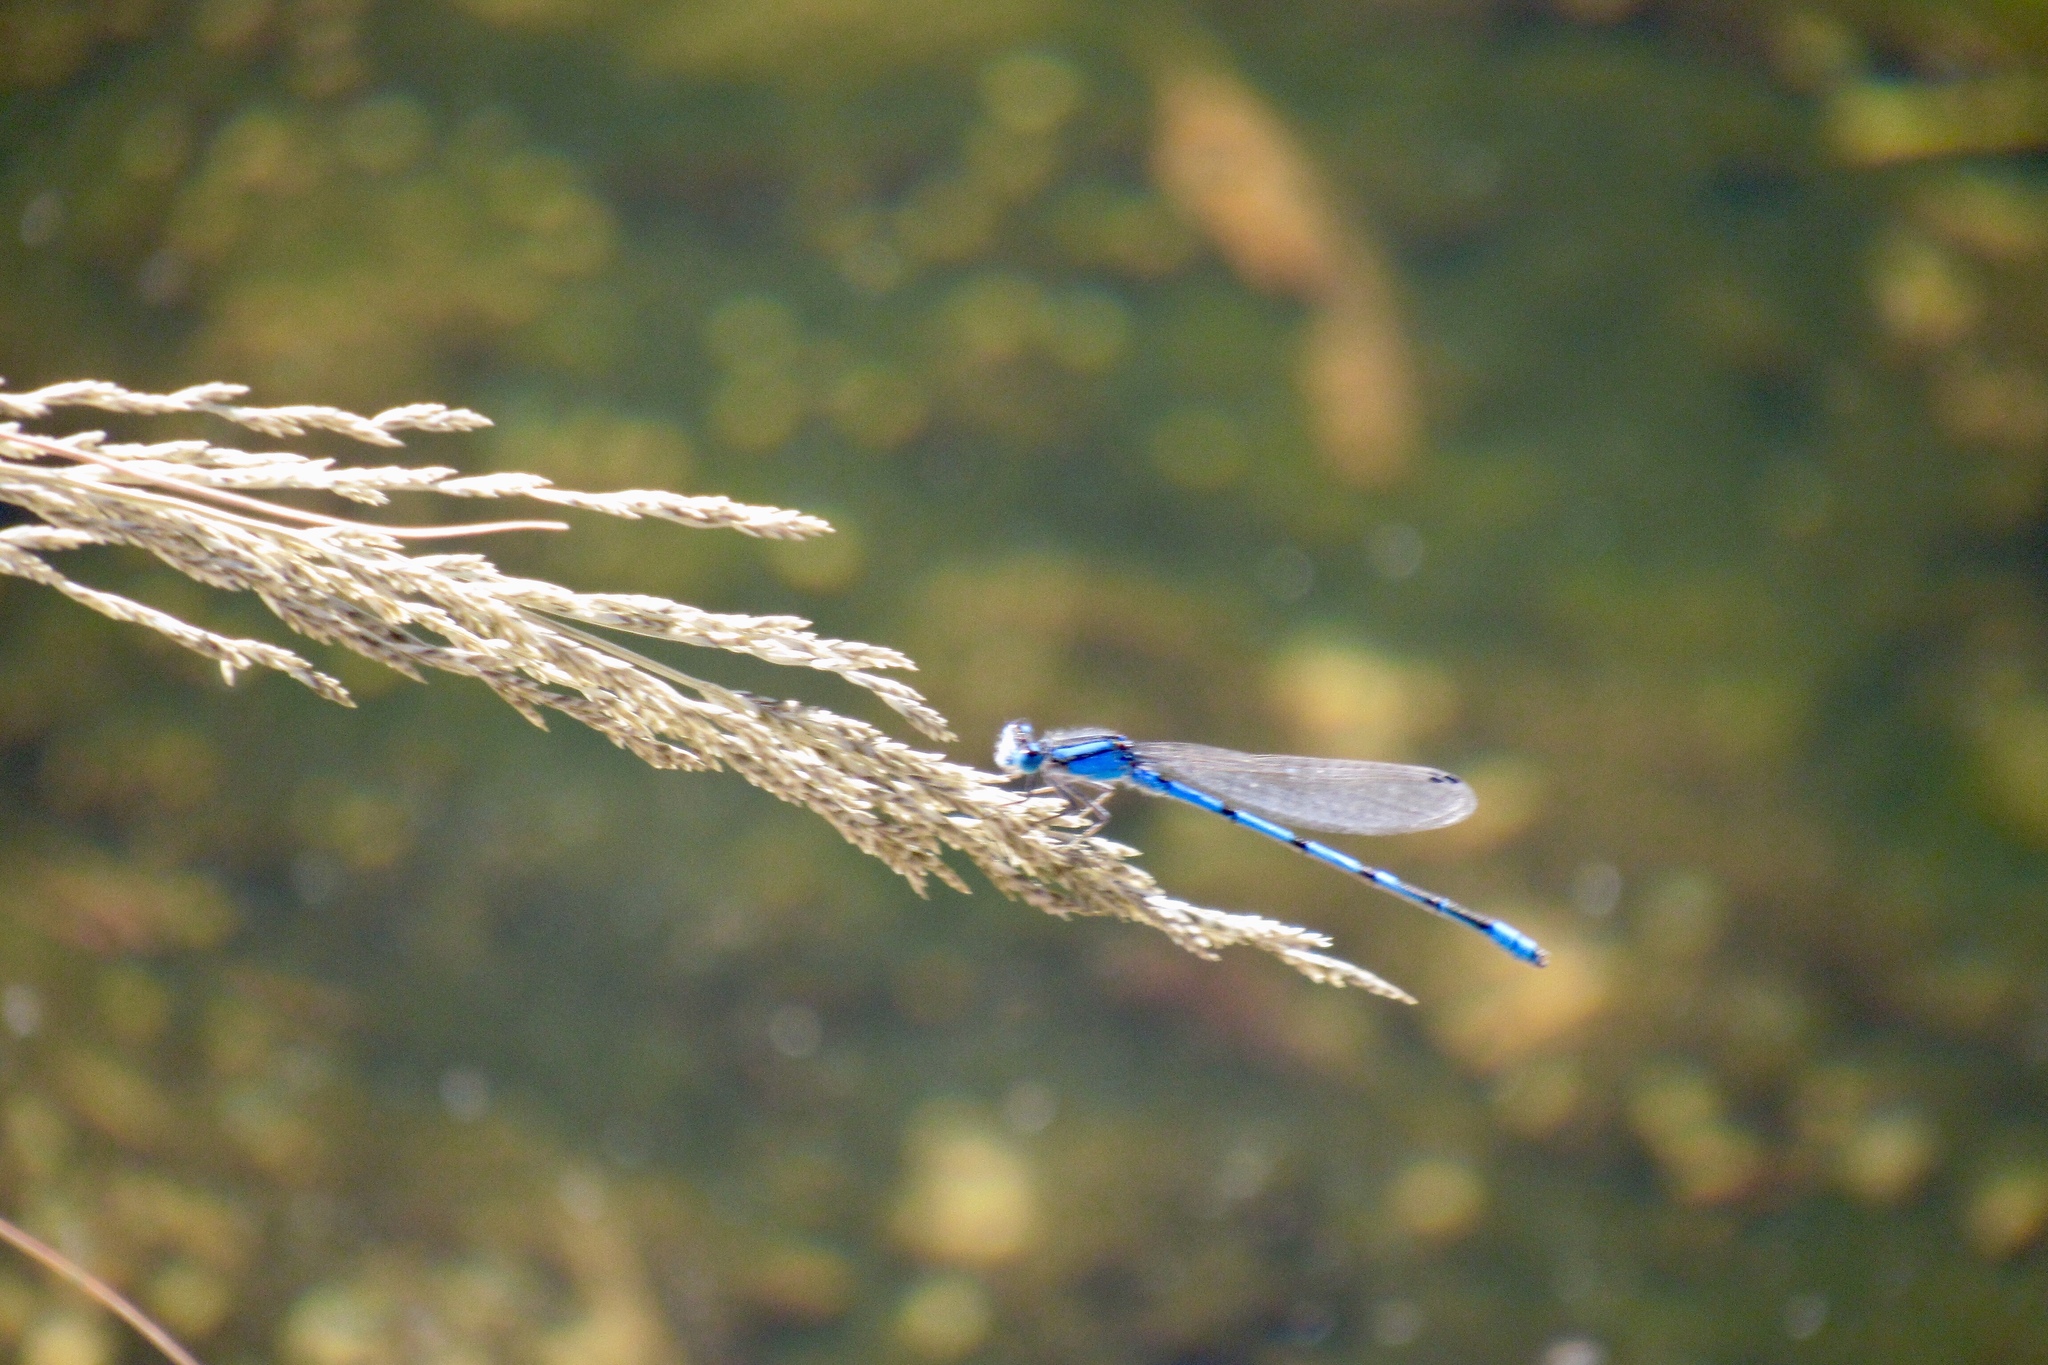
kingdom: Animalia
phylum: Arthropoda
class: Insecta
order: Odonata
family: Coenagrionidae
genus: Enallagma
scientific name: Enallagma civile
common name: Damselfly
